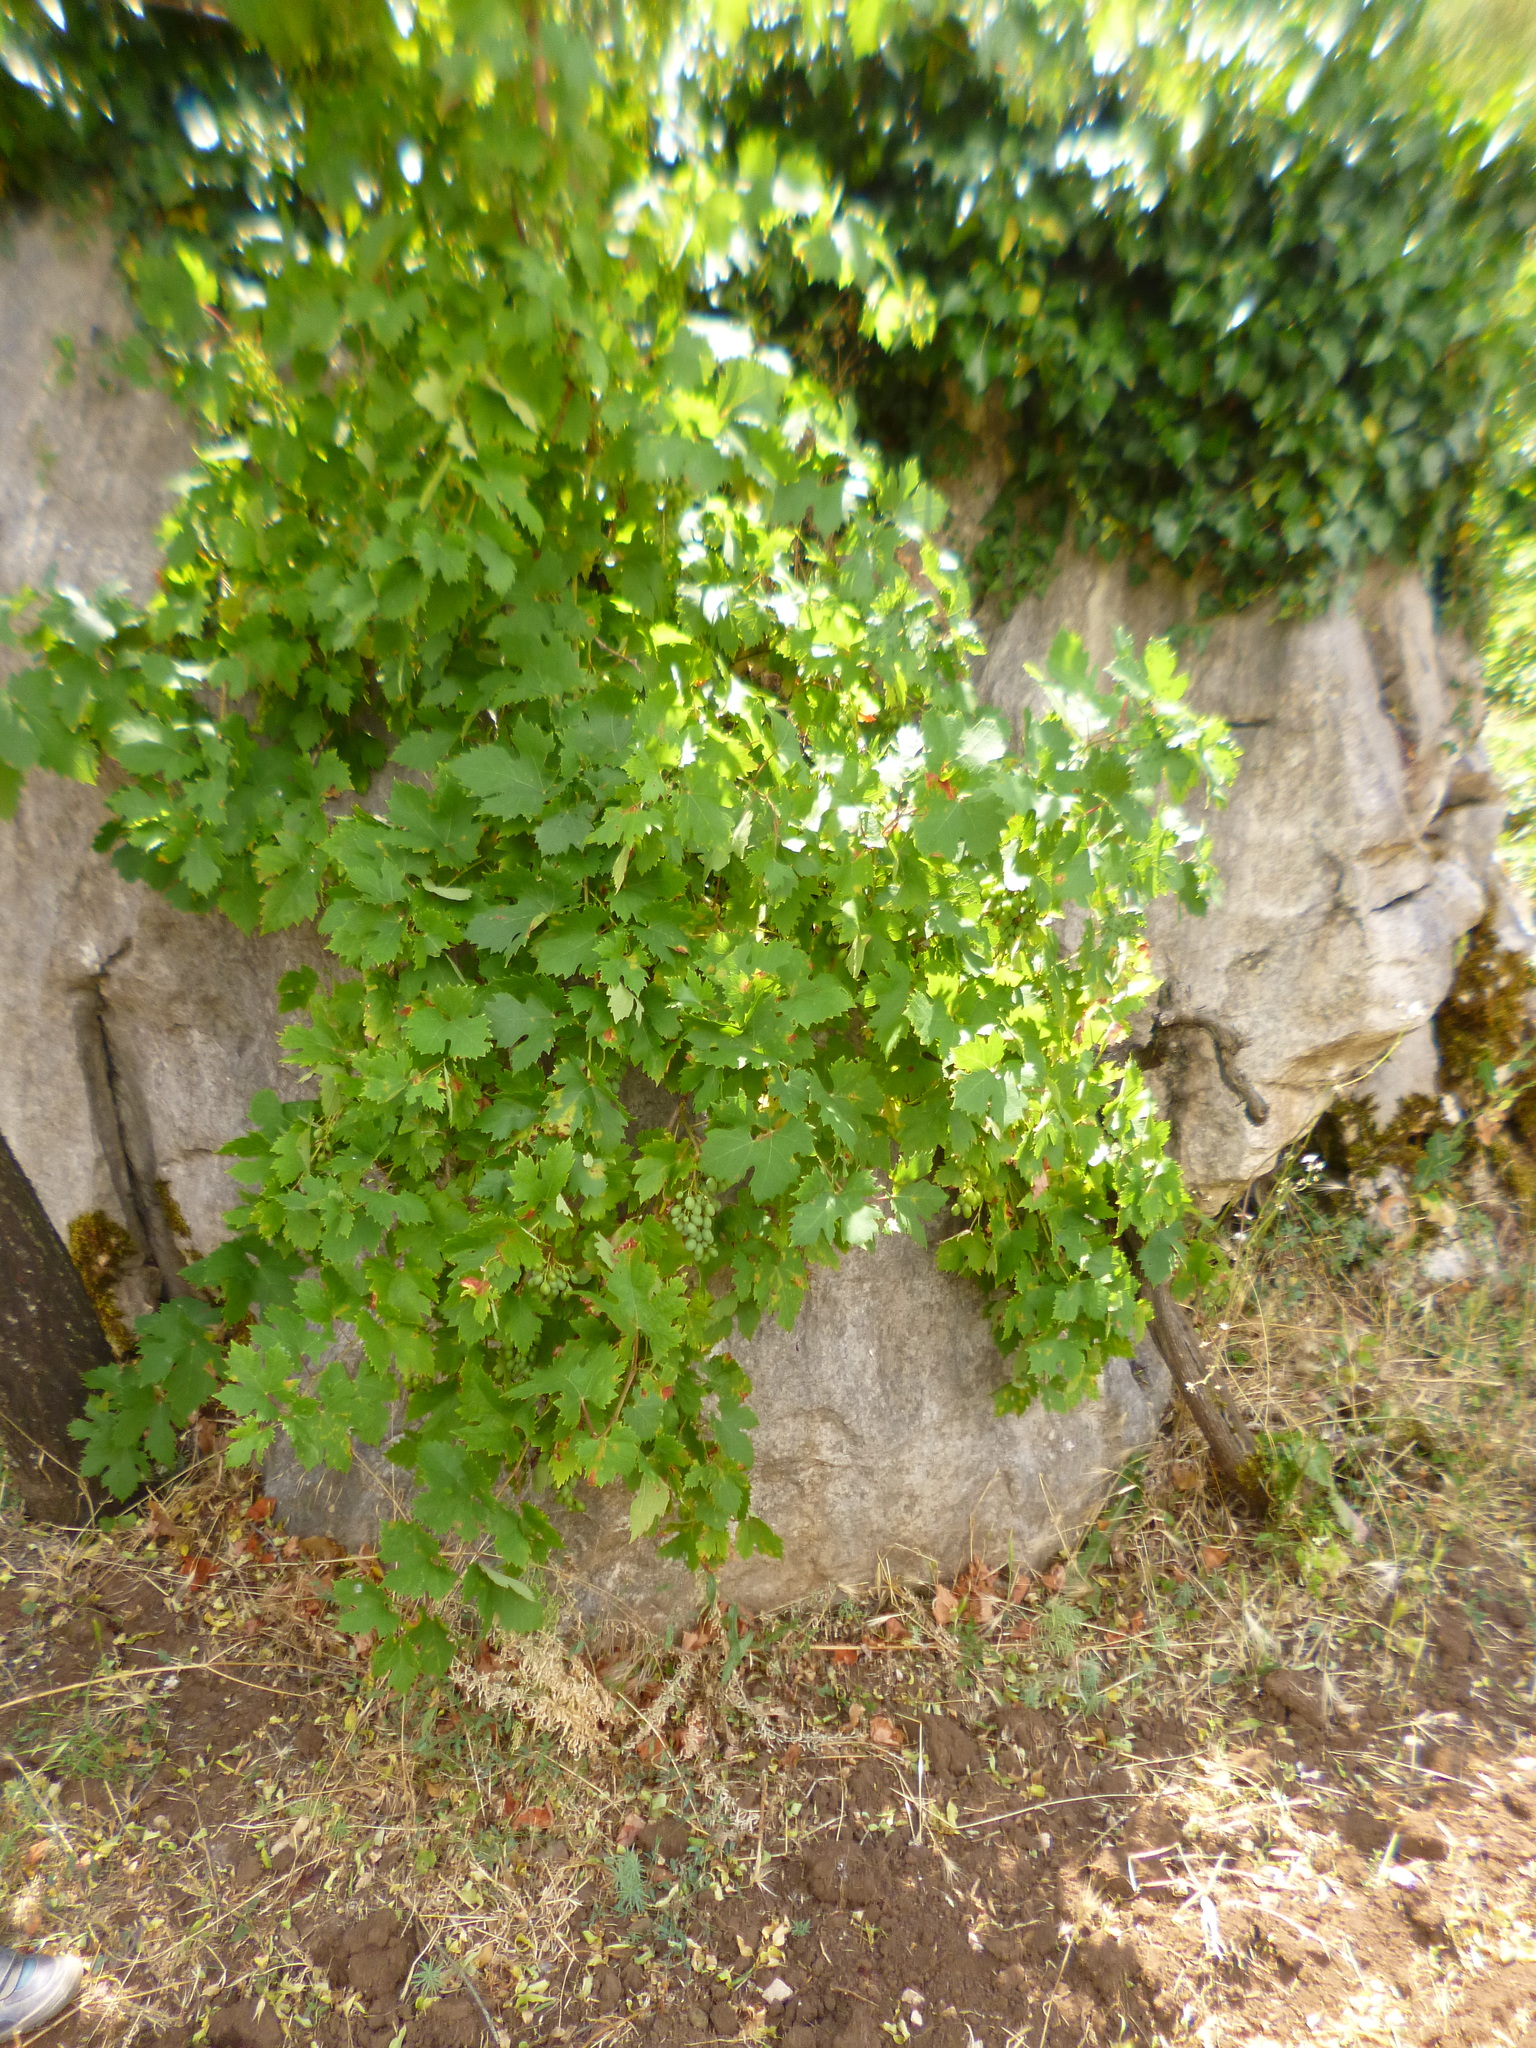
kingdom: Plantae
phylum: Tracheophyta
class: Magnoliopsida
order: Vitales
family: Vitaceae
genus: Vitis
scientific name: Vitis vinifera
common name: Grape-vine
